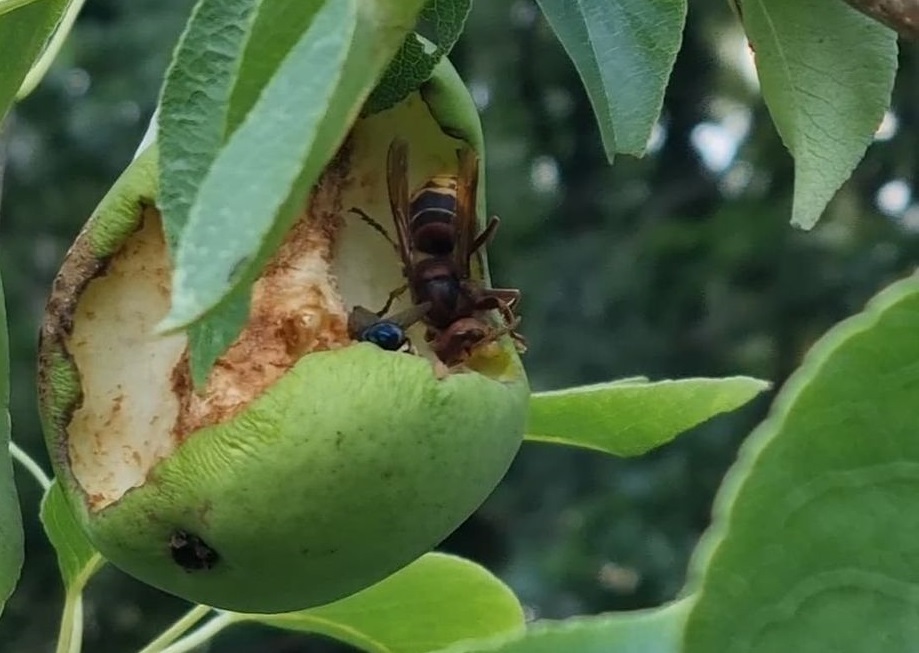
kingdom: Animalia
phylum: Arthropoda
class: Insecta
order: Hymenoptera
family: Vespidae
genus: Vespa
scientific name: Vespa crabro
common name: Hornet
